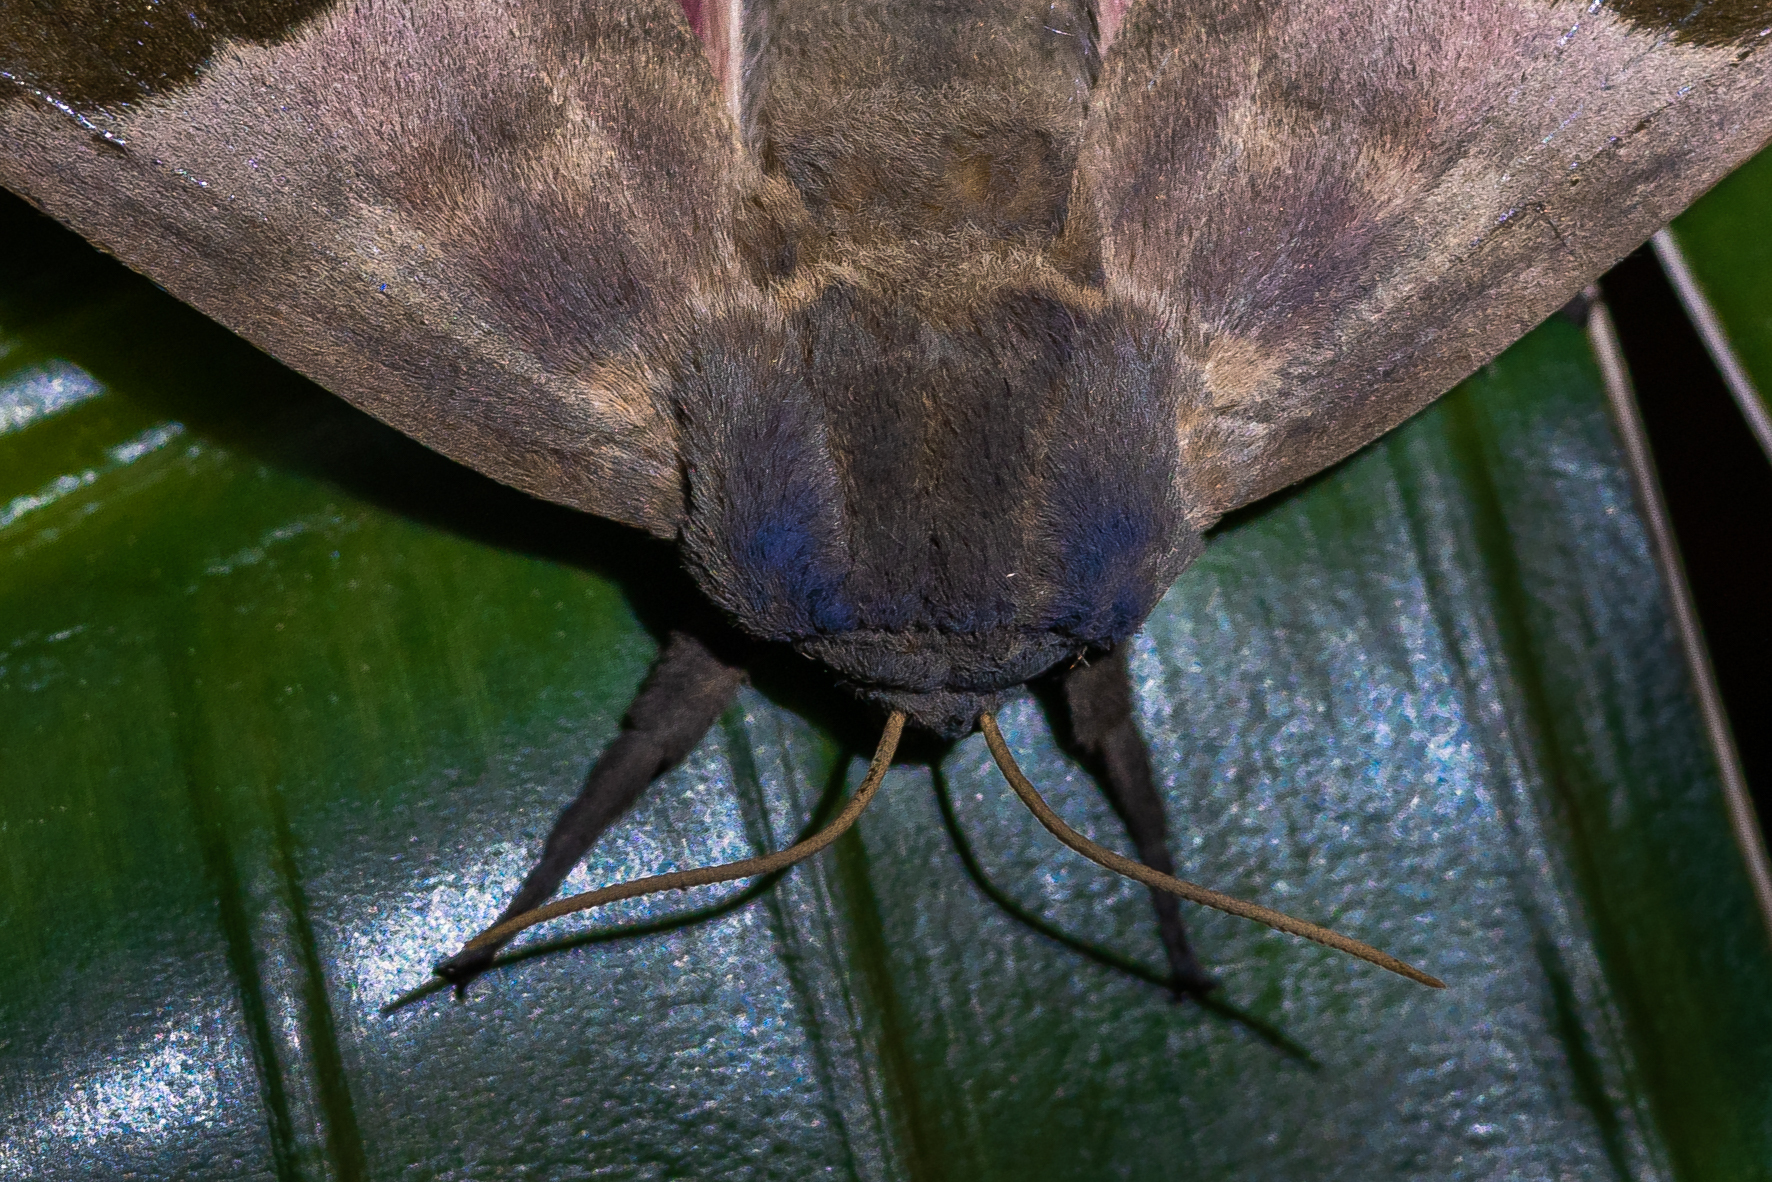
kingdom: Animalia
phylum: Arthropoda
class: Insecta
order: Lepidoptera
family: Sphingidae
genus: Pachysphinx
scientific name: Pachysphinx modesta
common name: Big poplar sphinx
